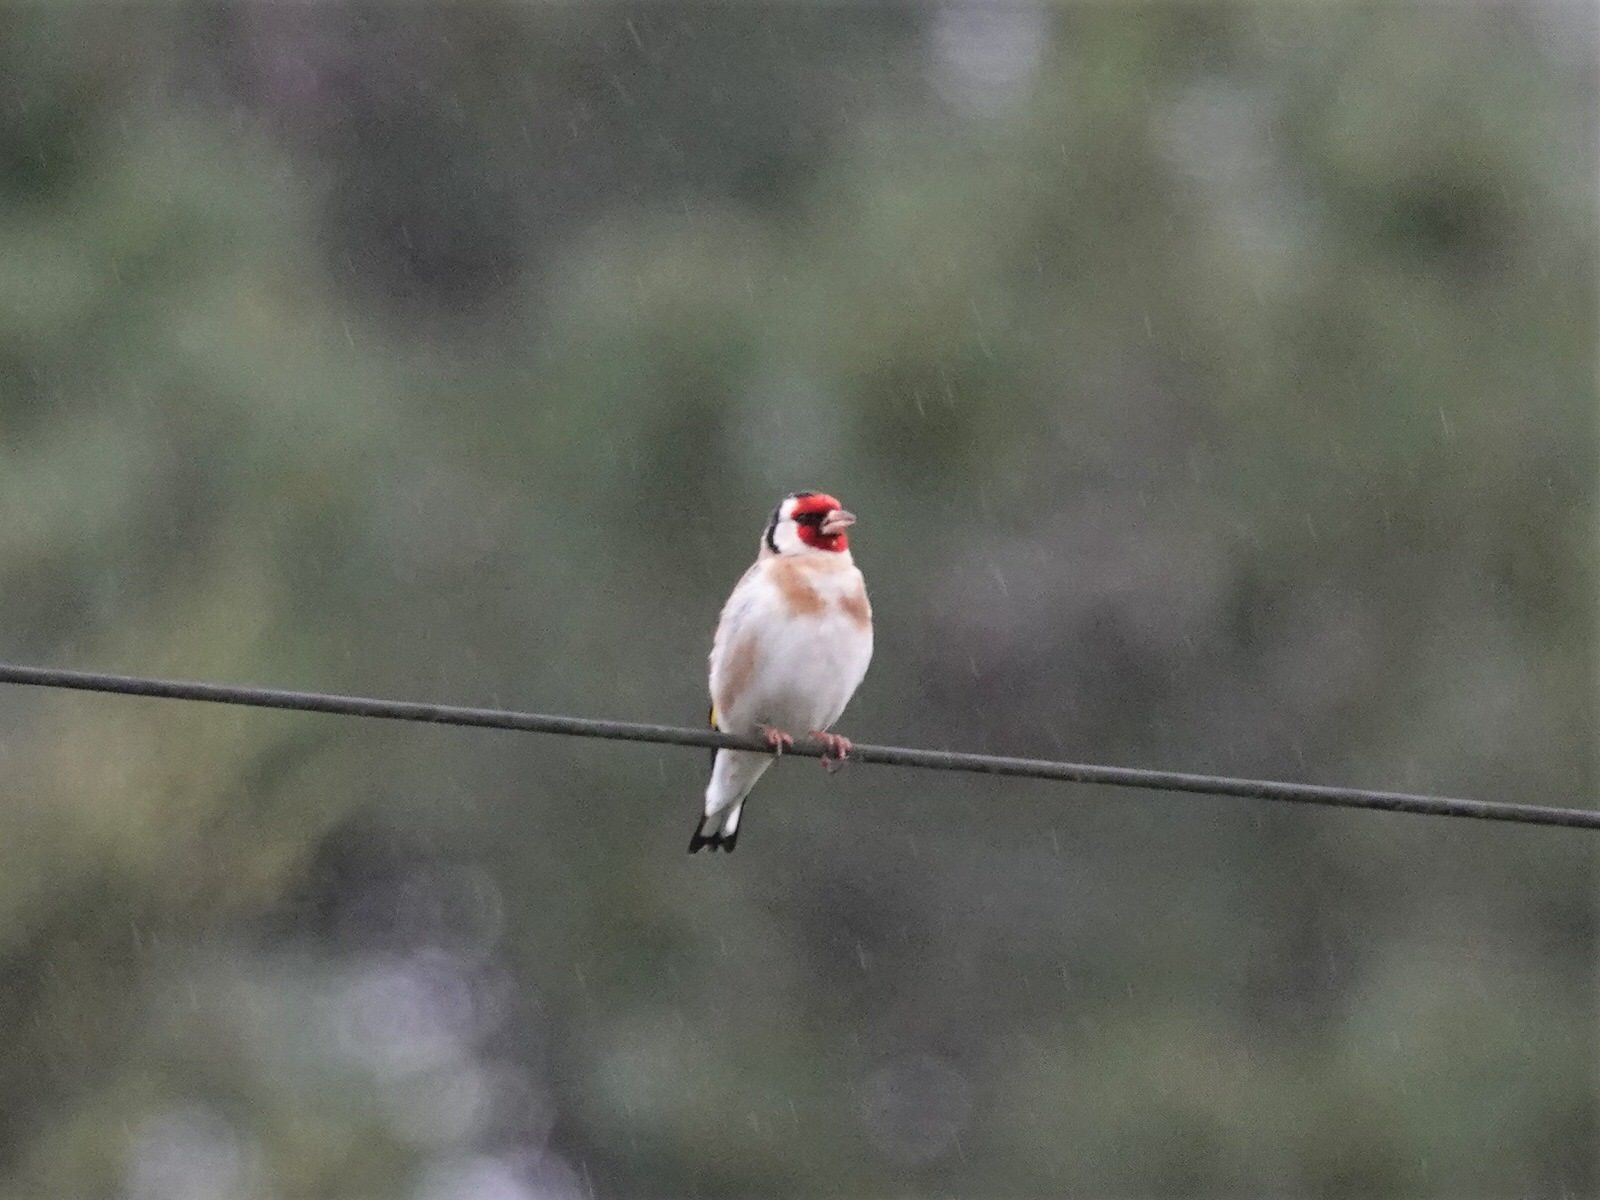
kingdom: Animalia
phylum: Chordata
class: Aves
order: Passeriformes
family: Fringillidae
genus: Carduelis
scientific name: Carduelis carduelis
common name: European goldfinch
